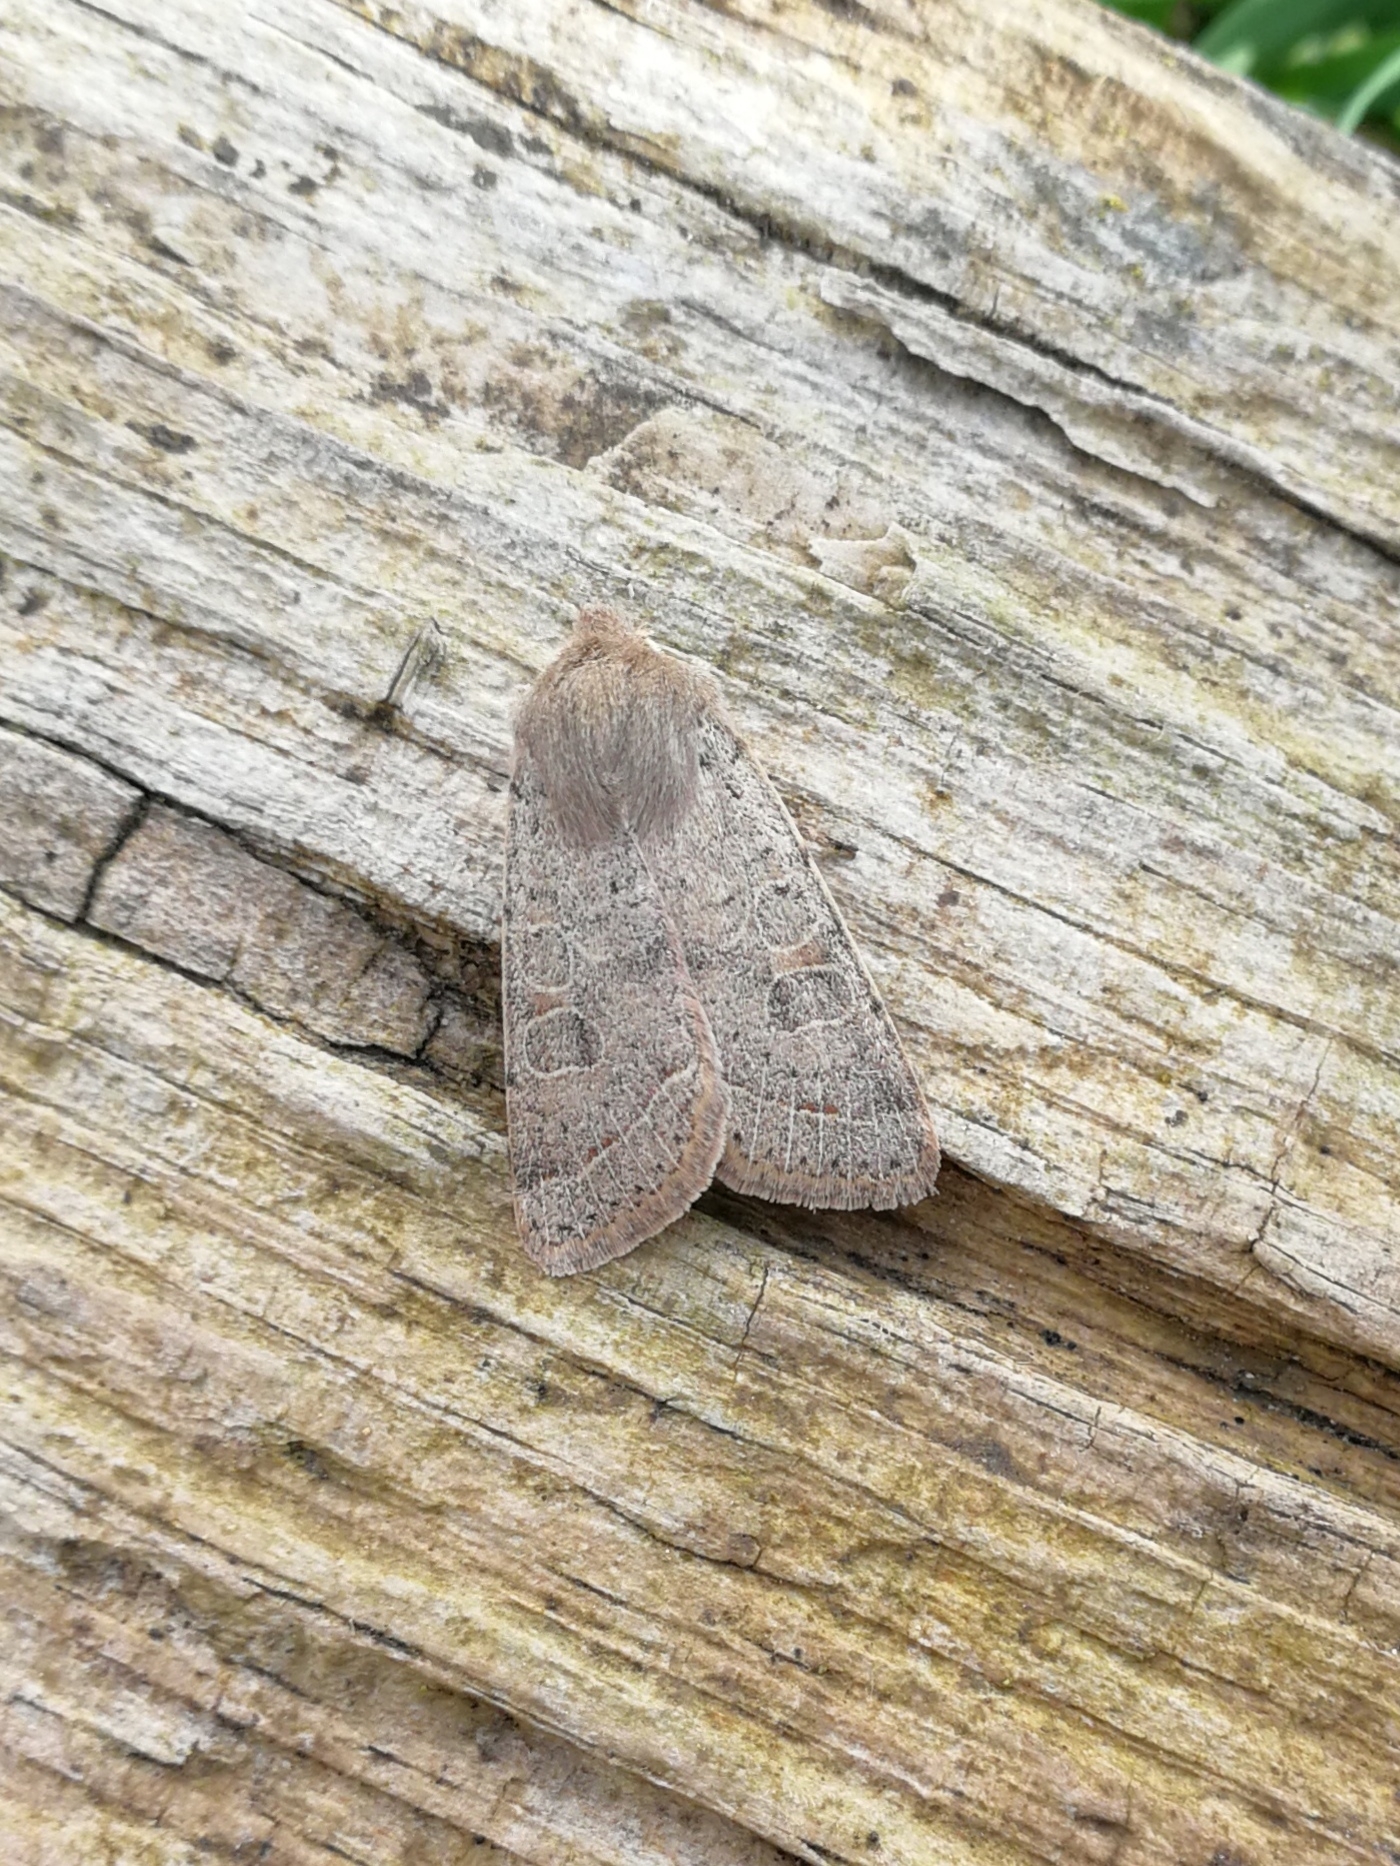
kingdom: Animalia
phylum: Arthropoda
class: Insecta
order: Lepidoptera
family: Noctuidae
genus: Orthosia
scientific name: Orthosia cerasi
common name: Common quaker
